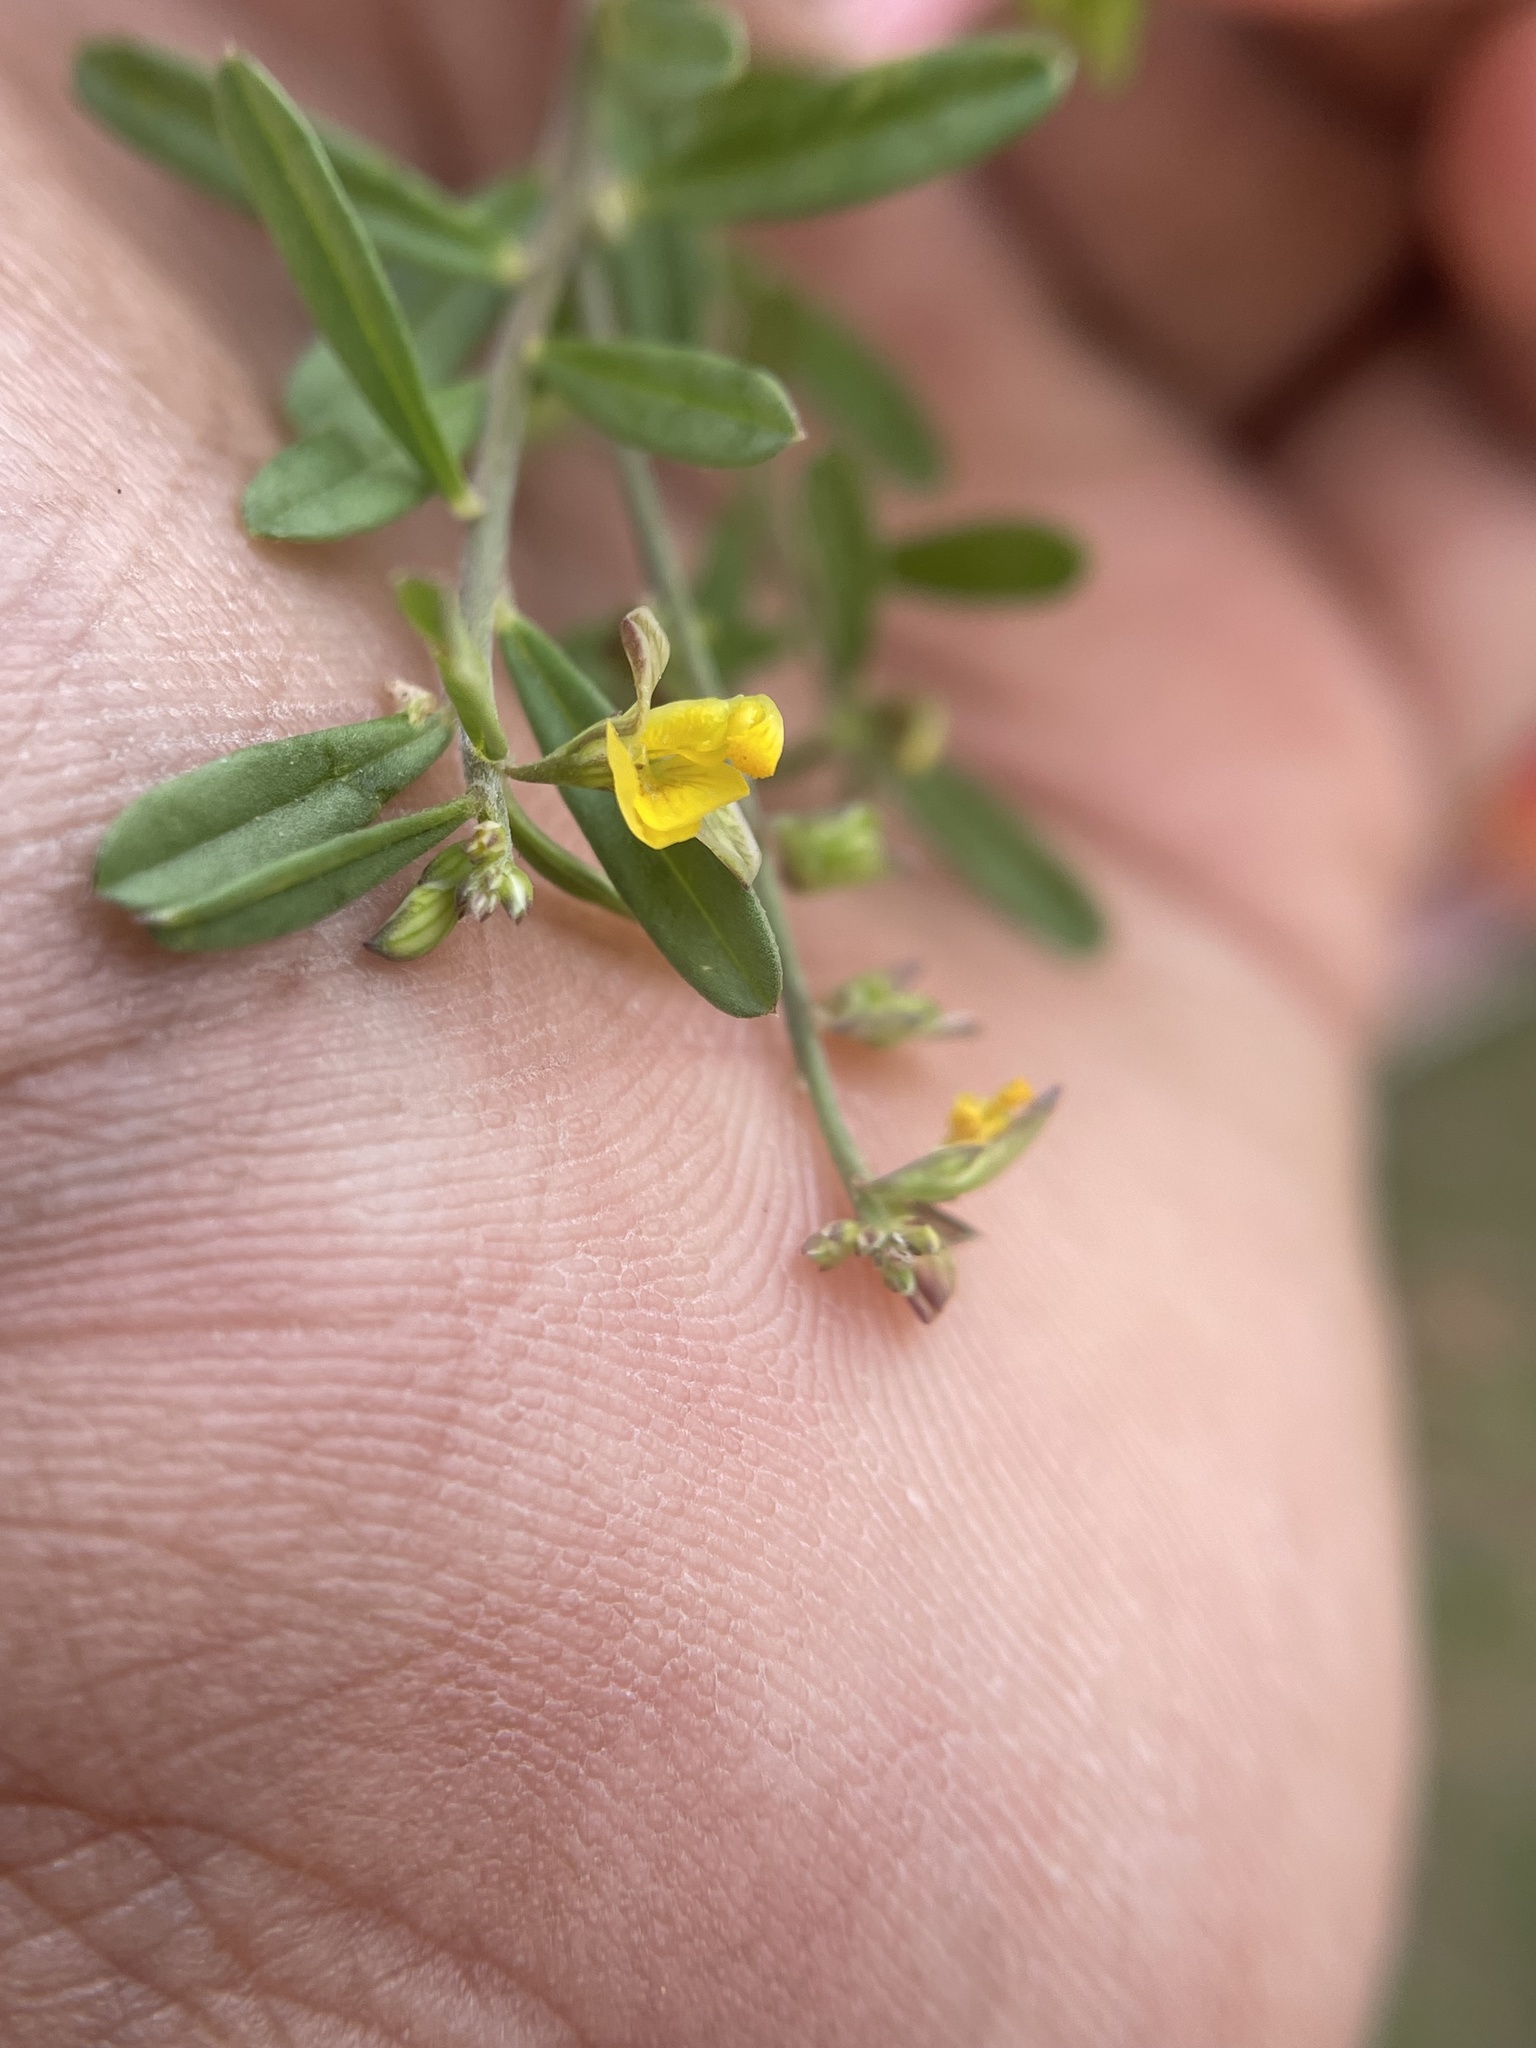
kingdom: Plantae
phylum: Tracheophyta
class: Magnoliopsida
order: Fabales
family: Polygalaceae
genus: Polygala
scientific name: Polygala
